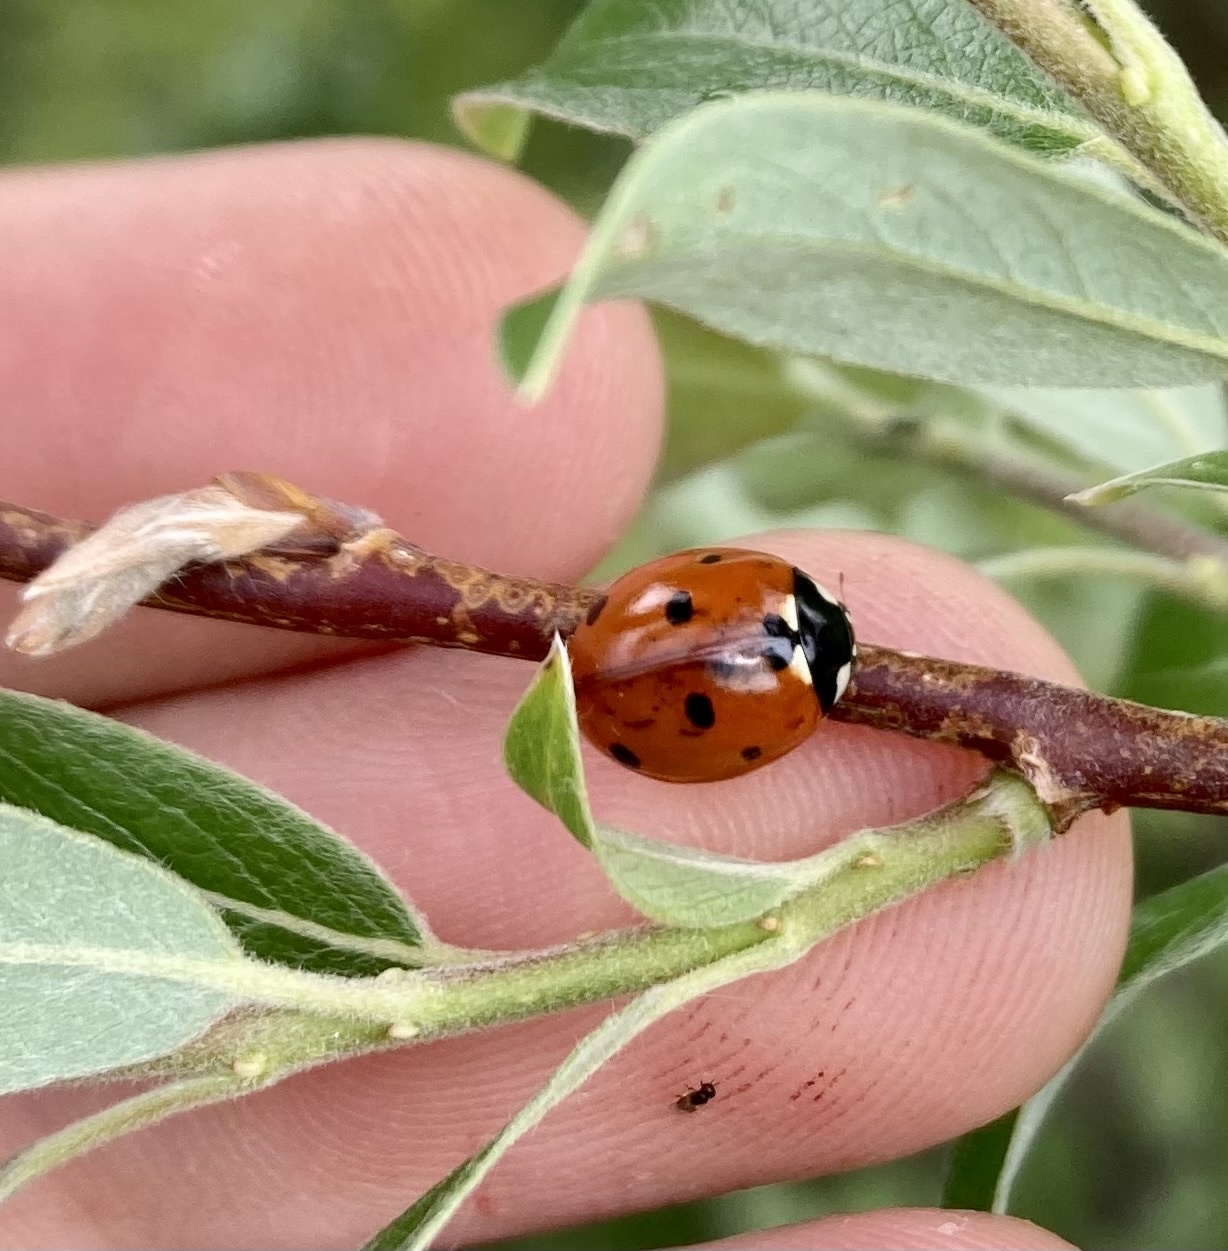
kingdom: Animalia
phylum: Arthropoda
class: Insecta
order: Coleoptera
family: Coccinellidae
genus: Coccinella
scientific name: Coccinella septempunctata
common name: Sevenspotted lady beetle
